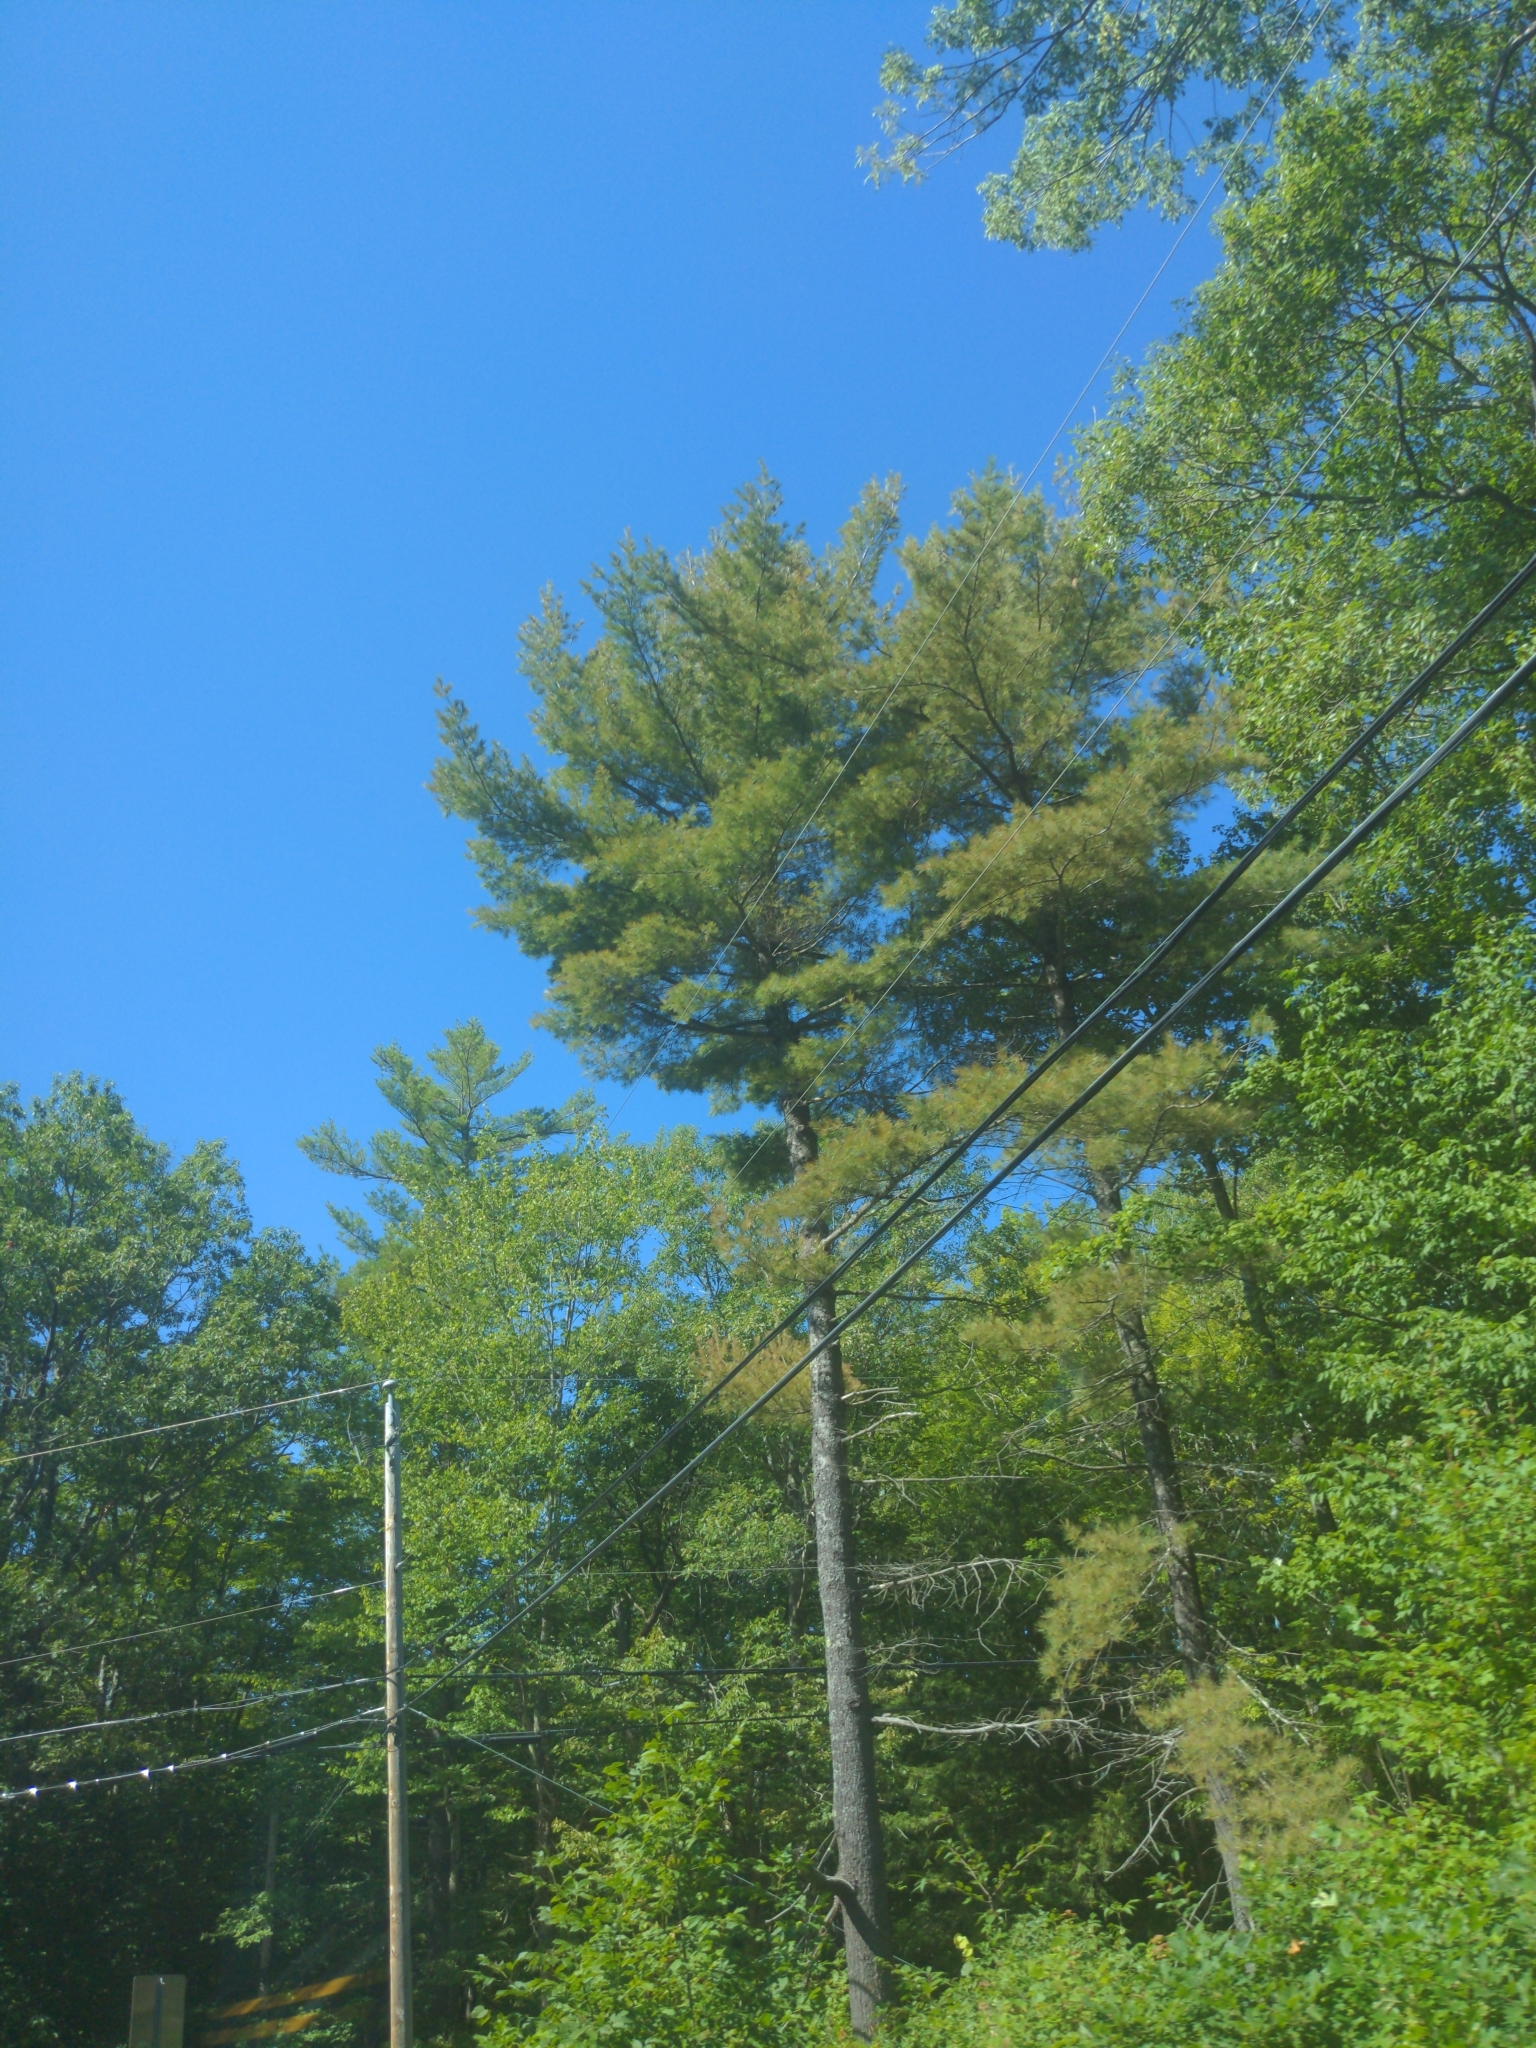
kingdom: Plantae
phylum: Tracheophyta
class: Pinopsida
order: Pinales
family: Pinaceae
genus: Pinus
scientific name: Pinus strobus
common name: Weymouth pine
